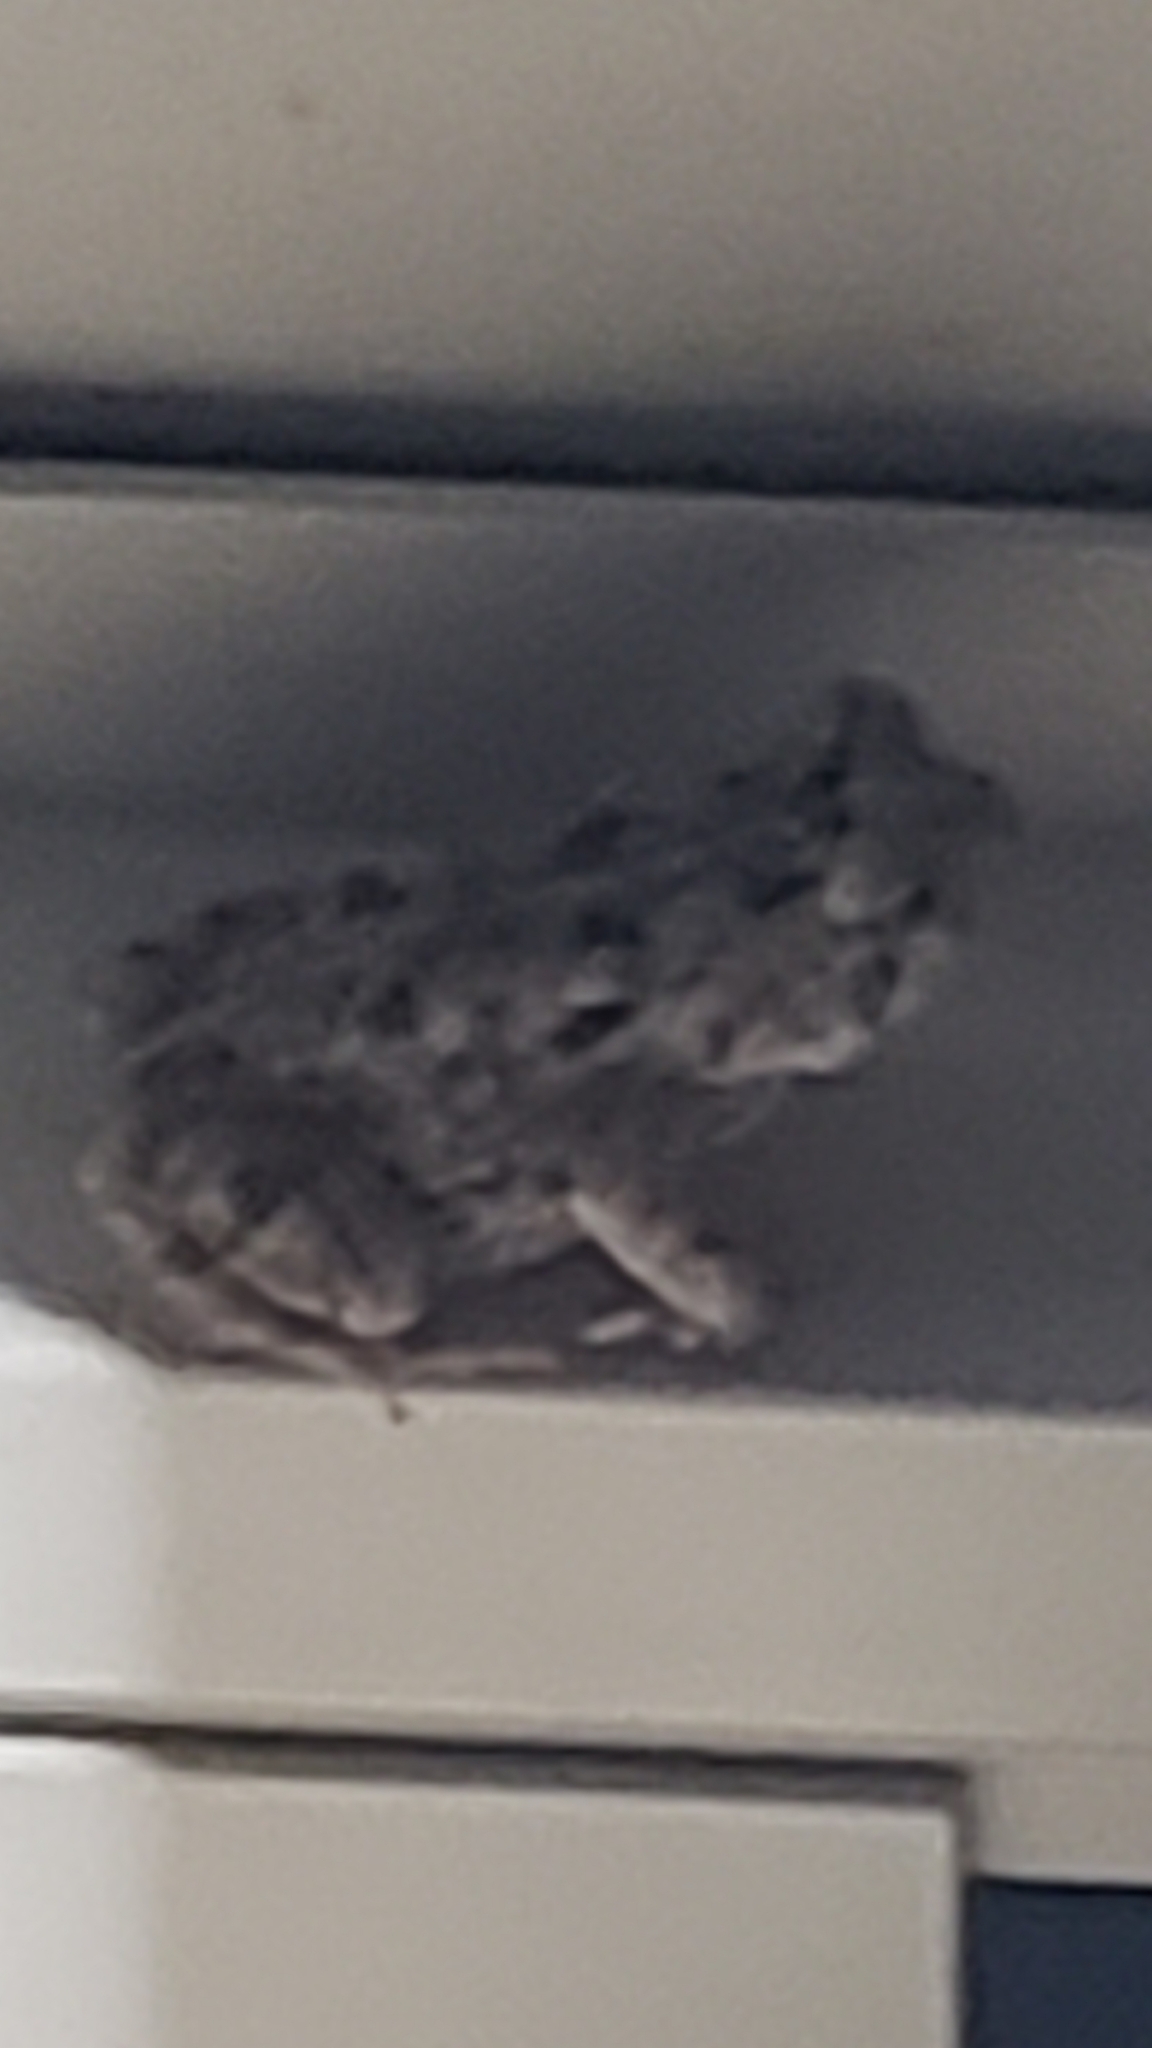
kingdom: Animalia
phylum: Chordata
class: Amphibia
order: Anura
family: Bufonidae
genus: Rhinella
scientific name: Rhinella marina
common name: Cane toad
